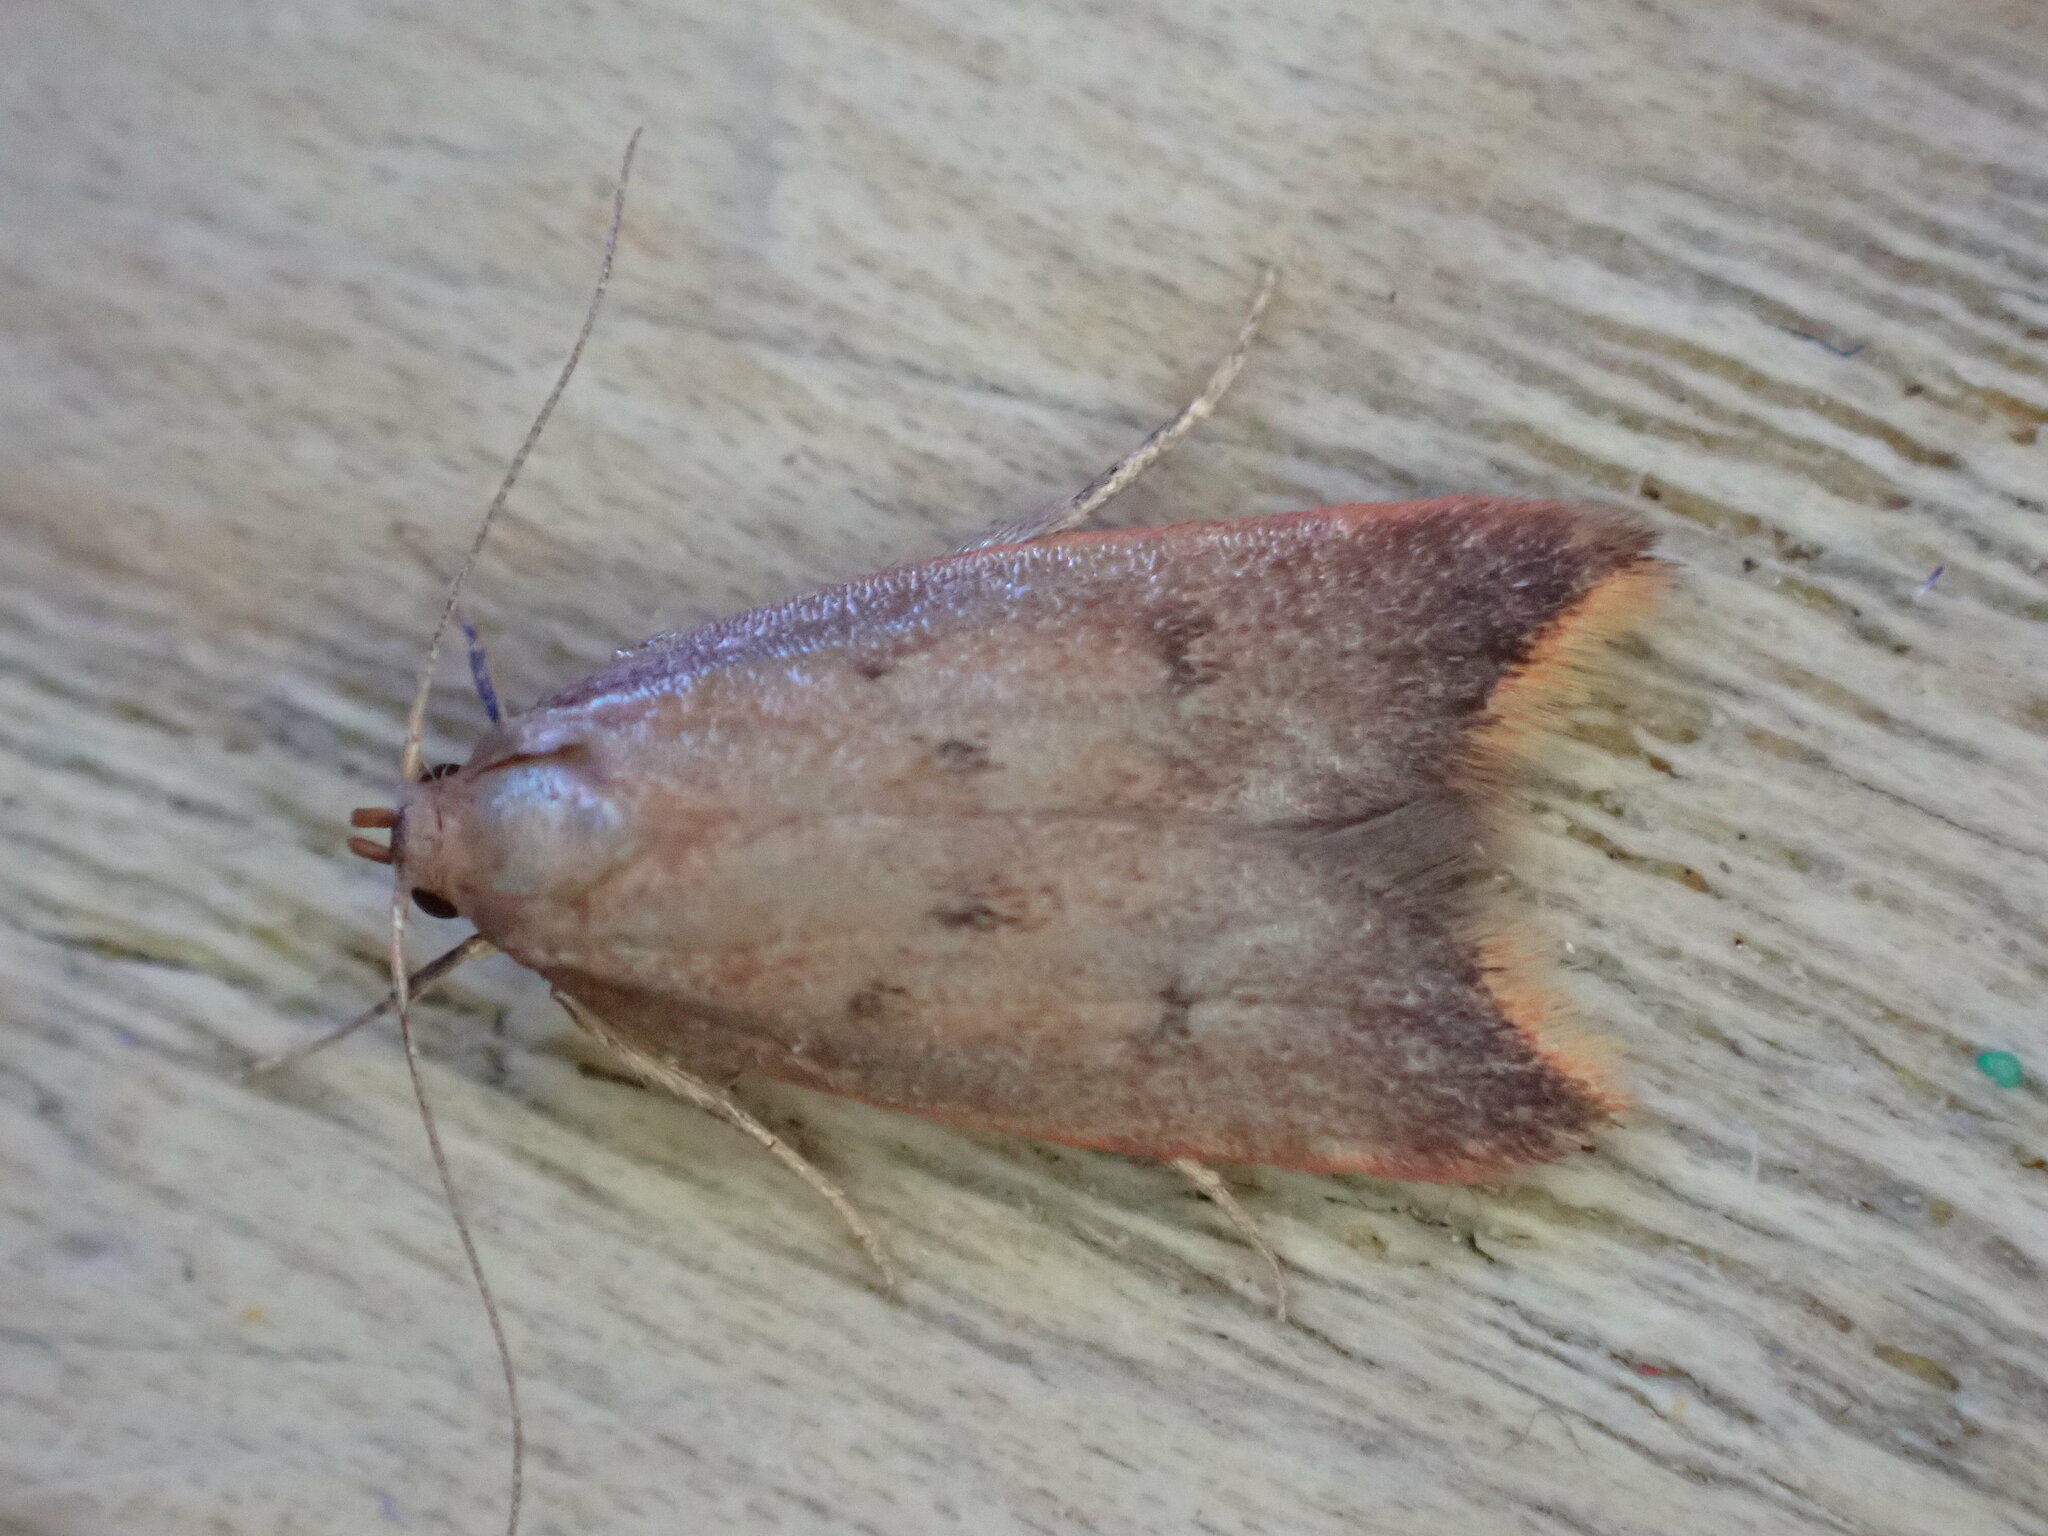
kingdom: Animalia
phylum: Arthropoda
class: Insecta
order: Lepidoptera
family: Oecophoridae
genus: Tachystola
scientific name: Tachystola acroxantha
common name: Ruddy streak
